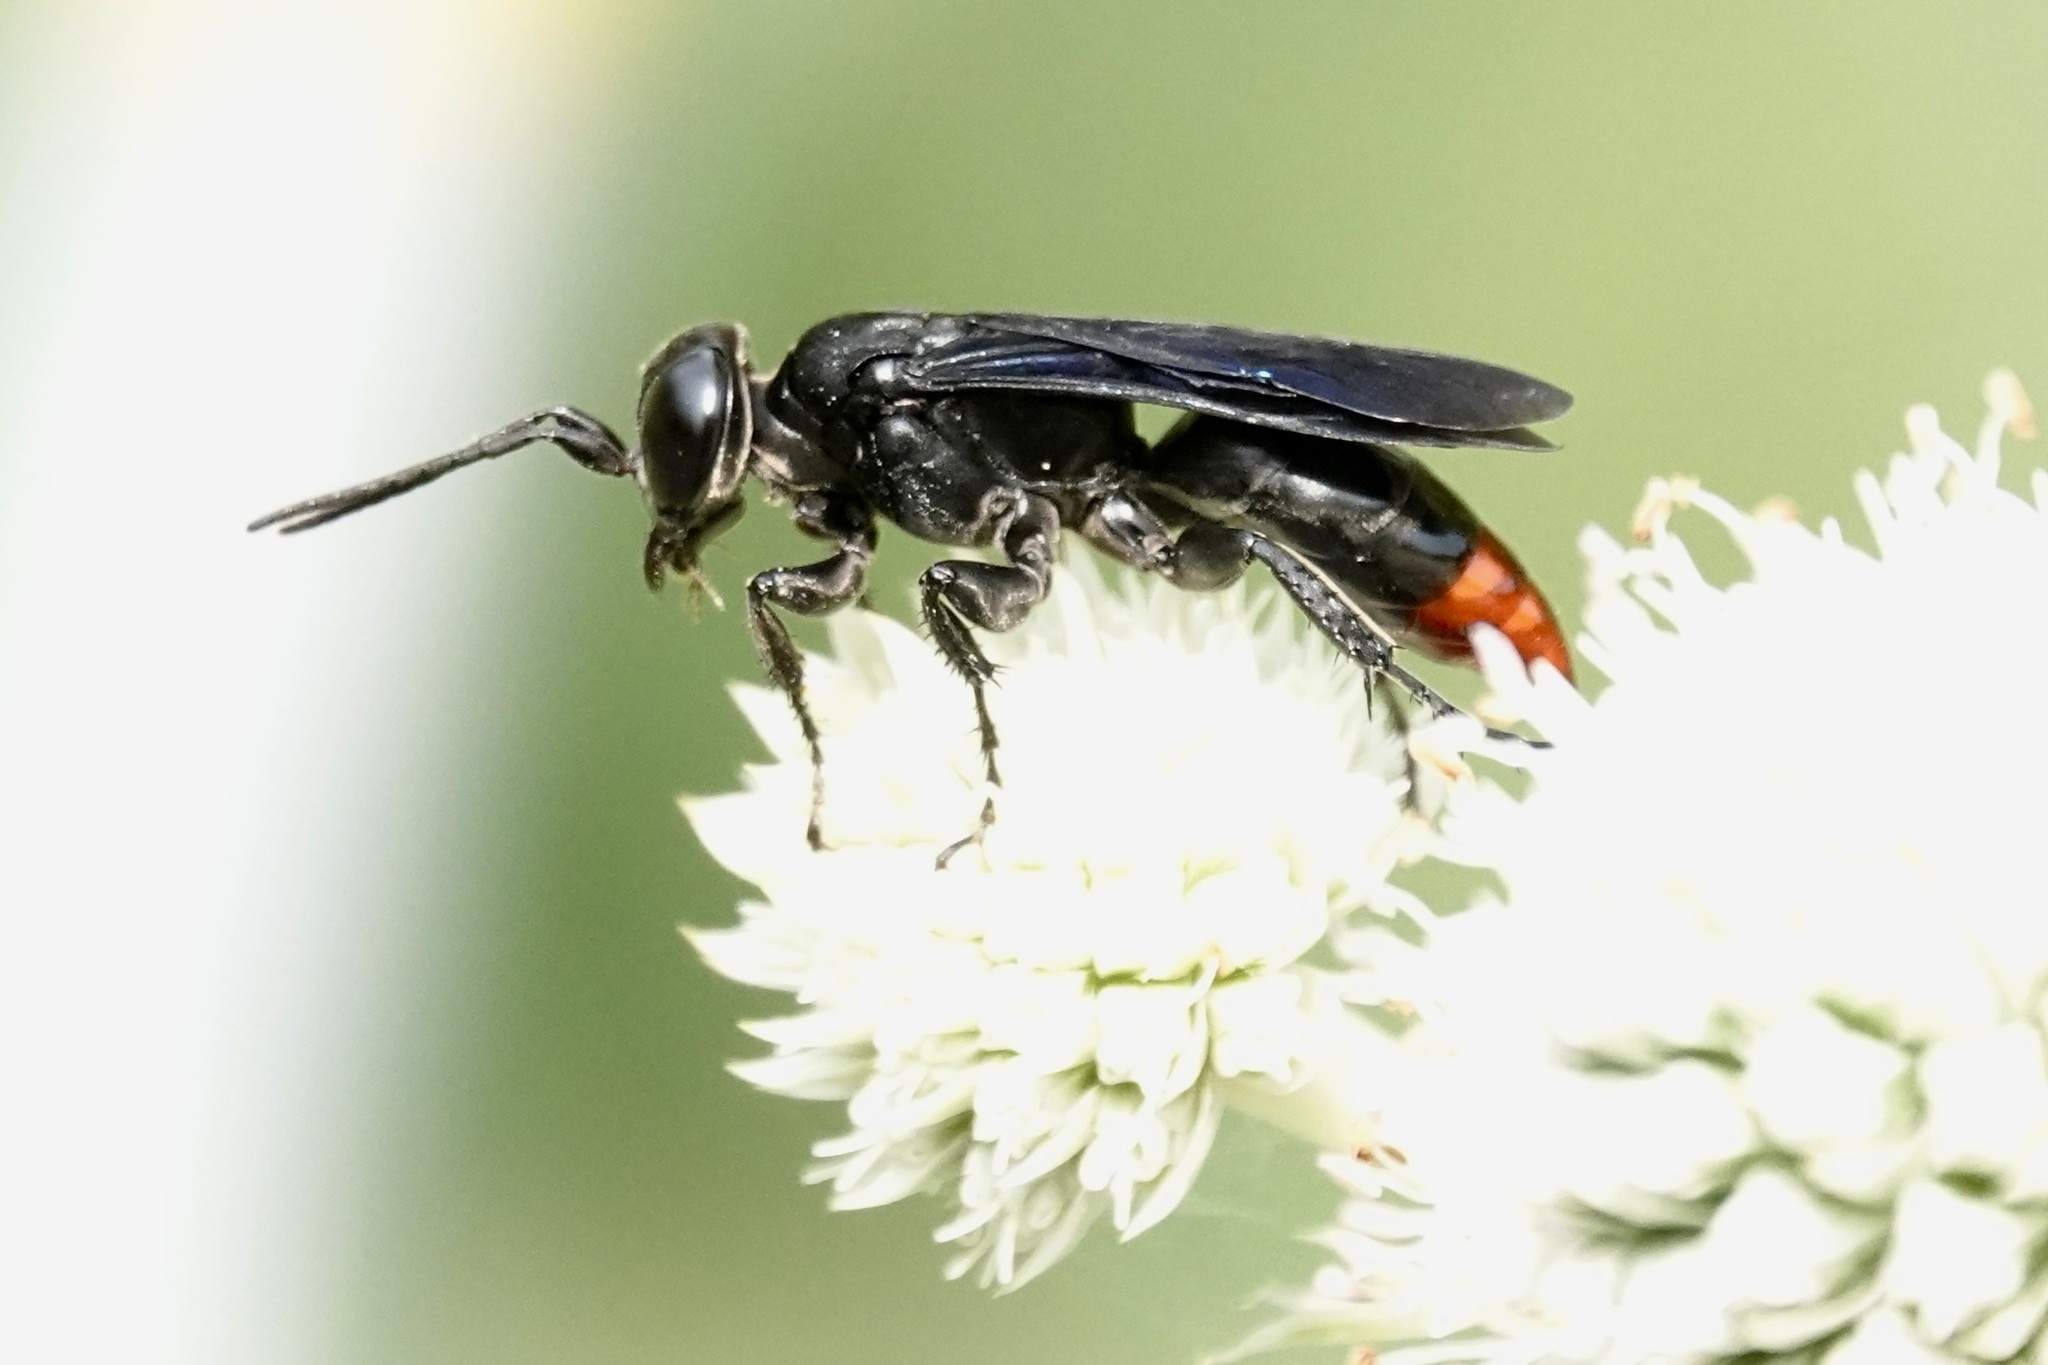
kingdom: Animalia
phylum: Arthropoda
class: Insecta
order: Hymenoptera
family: Crabronidae
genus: Larra
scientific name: Larra analis
